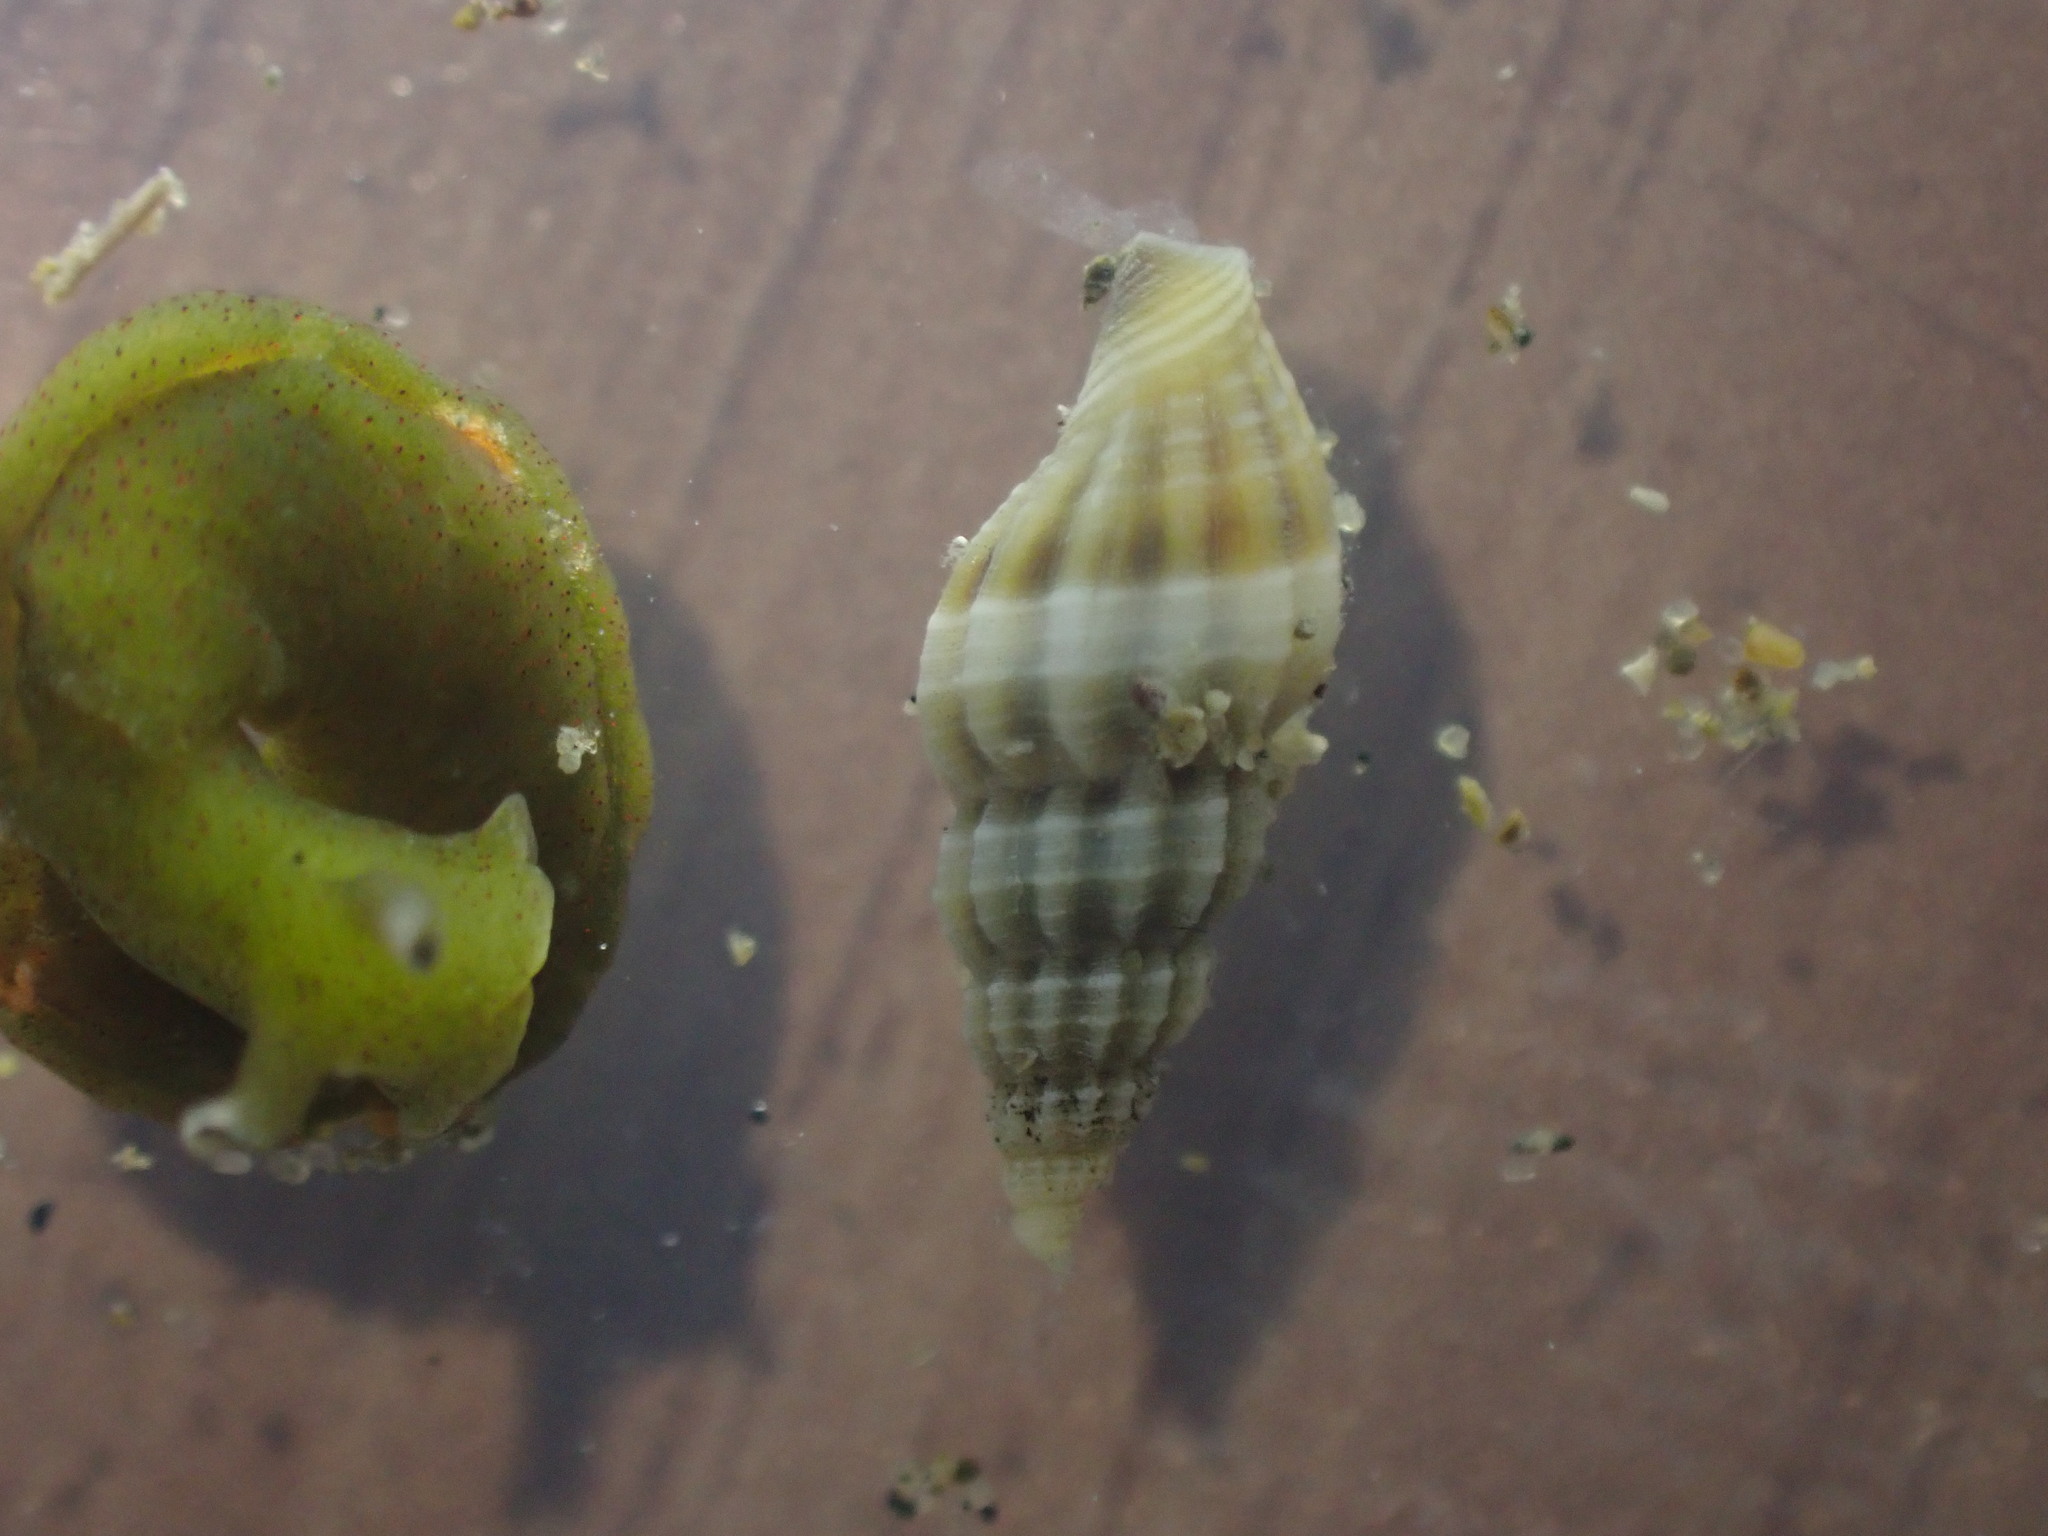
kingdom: Animalia
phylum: Mollusca
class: Gastropoda
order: Neogastropoda
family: Mangeliidae
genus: Neoguraleus
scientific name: Neoguraleus sinclairi
